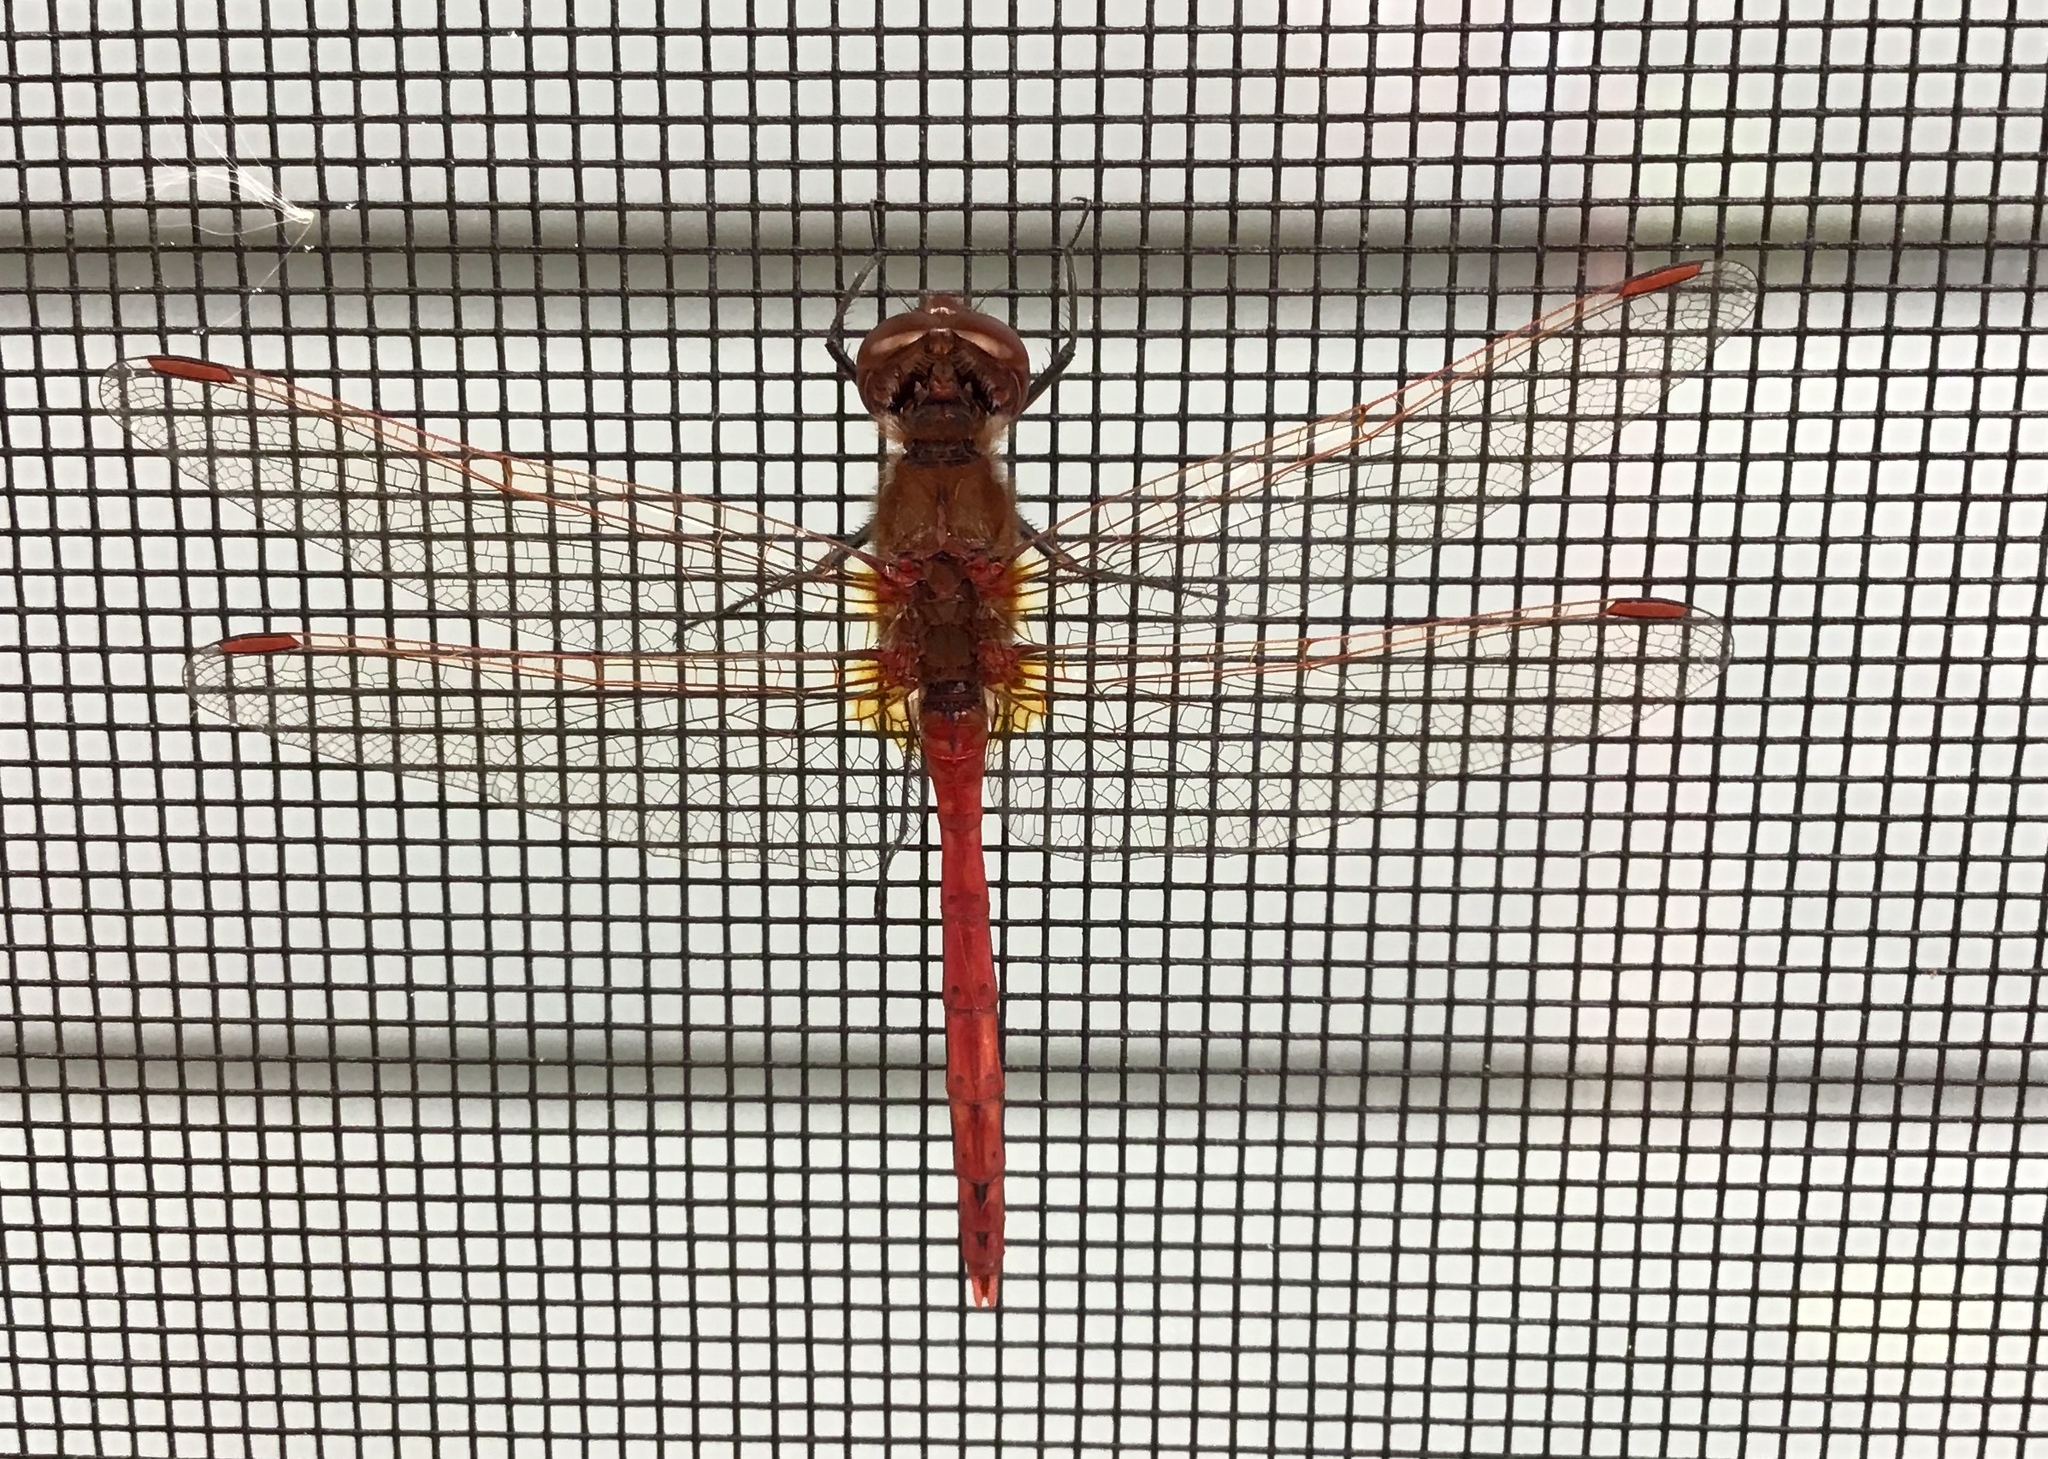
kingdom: Animalia
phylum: Arthropoda
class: Insecta
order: Odonata
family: Libellulidae
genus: Sympetrum
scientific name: Sympetrum costiferum
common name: Saffron-winged meadowhawk
